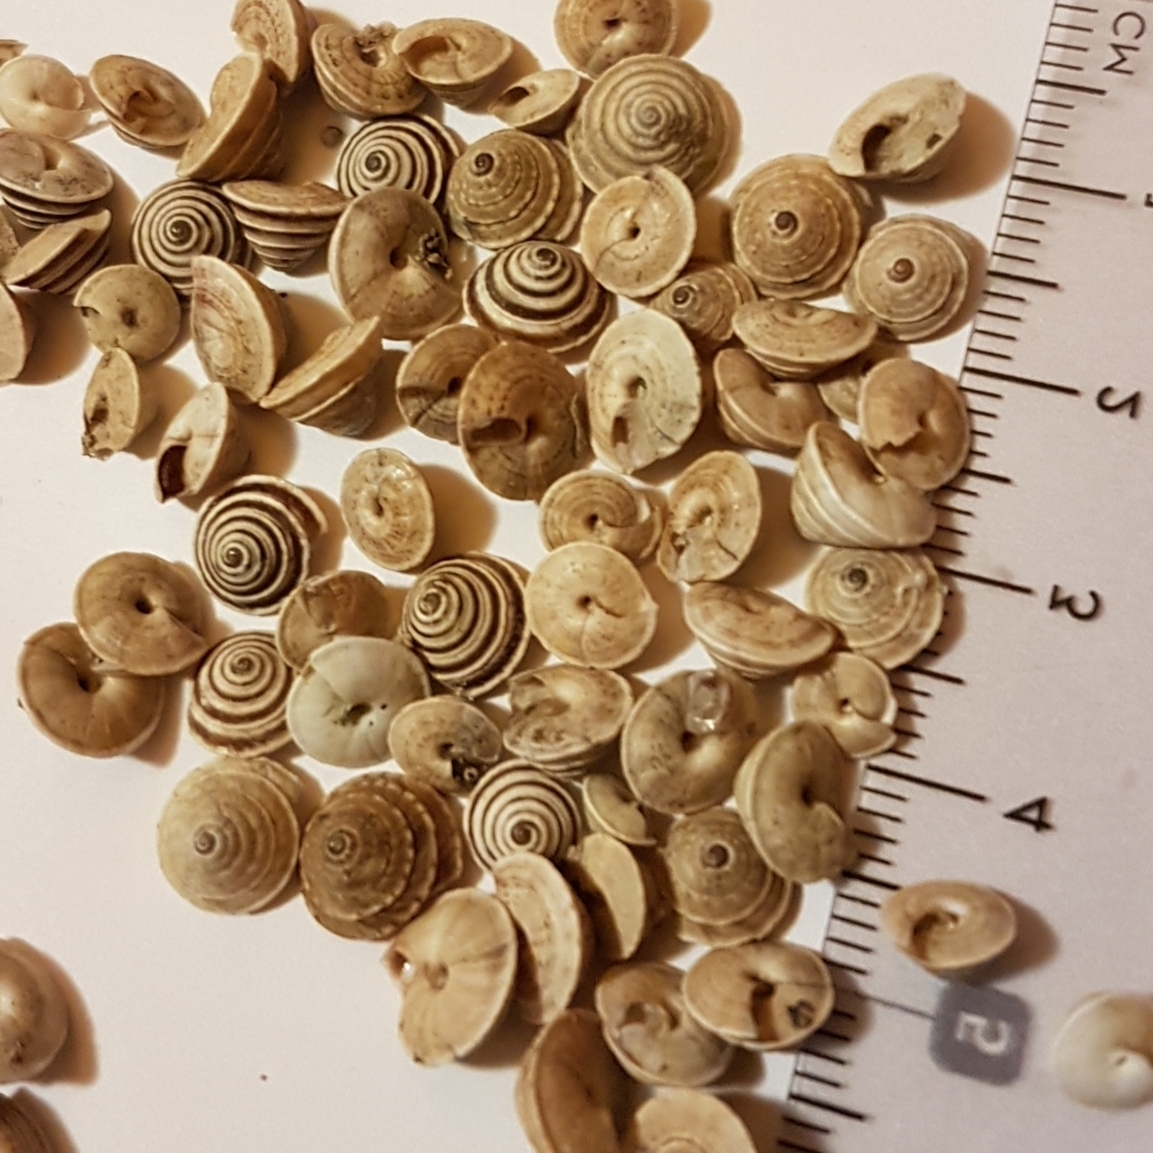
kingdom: Animalia
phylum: Mollusca
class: Gastropoda
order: Stylommatophora
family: Geomitridae
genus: Trochoidea
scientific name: Trochoidea elegans
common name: Elegant helicellid
